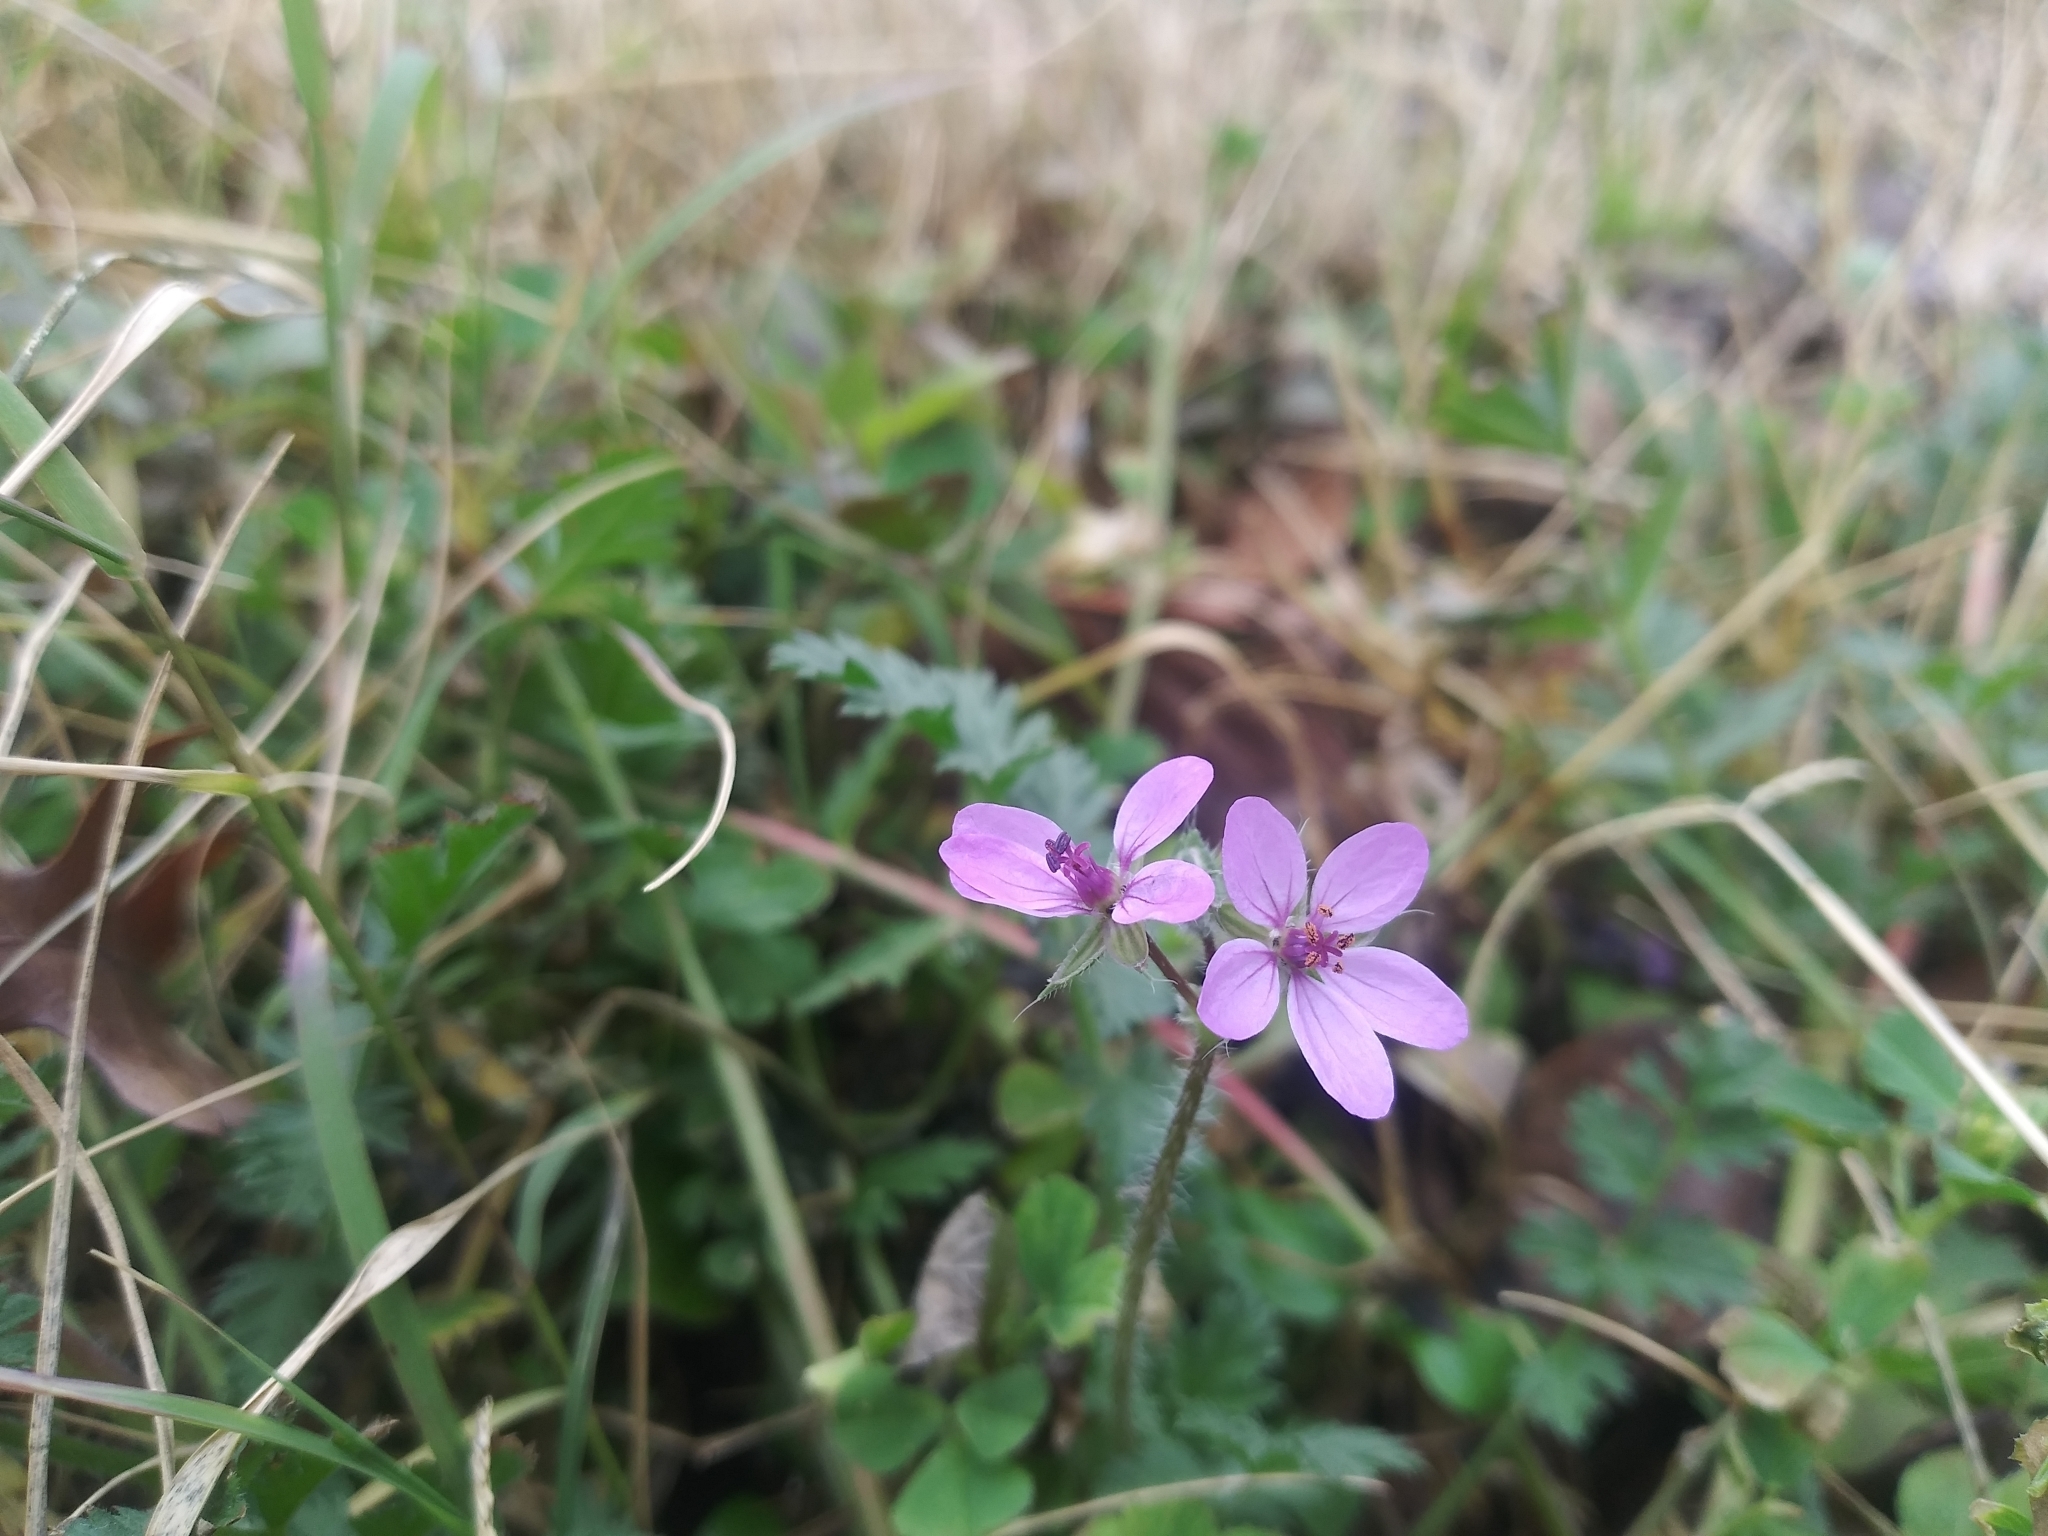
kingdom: Plantae
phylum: Tracheophyta
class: Magnoliopsida
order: Geraniales
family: Geraniaceae
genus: Erodium
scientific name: Erodium cicutarium
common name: Common stork's-bill
